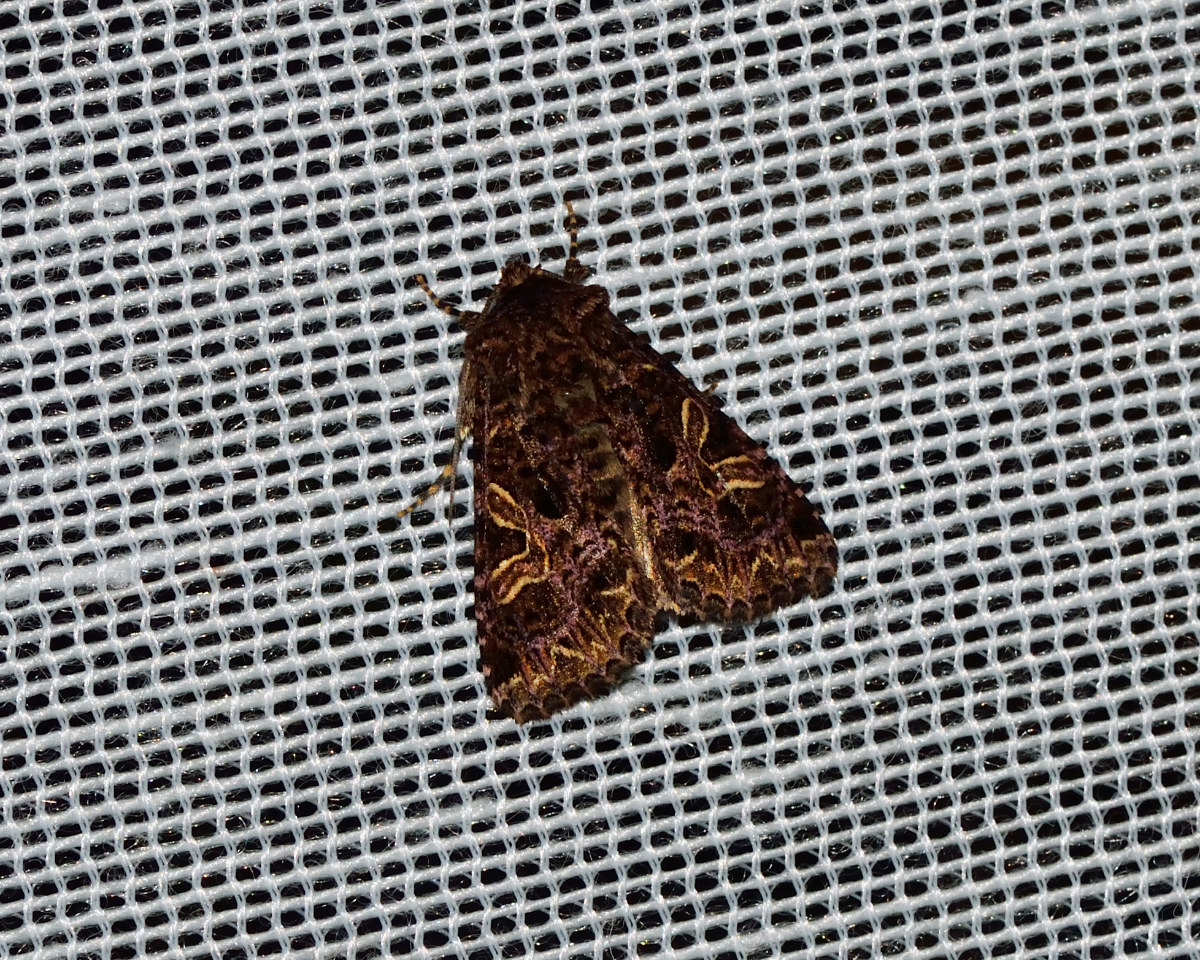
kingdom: Animalia
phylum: Arthropoda
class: Insecta
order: Lepidoptera
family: Noctuidae
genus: Sideridis
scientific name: Sideridis rivularis
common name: Campion
